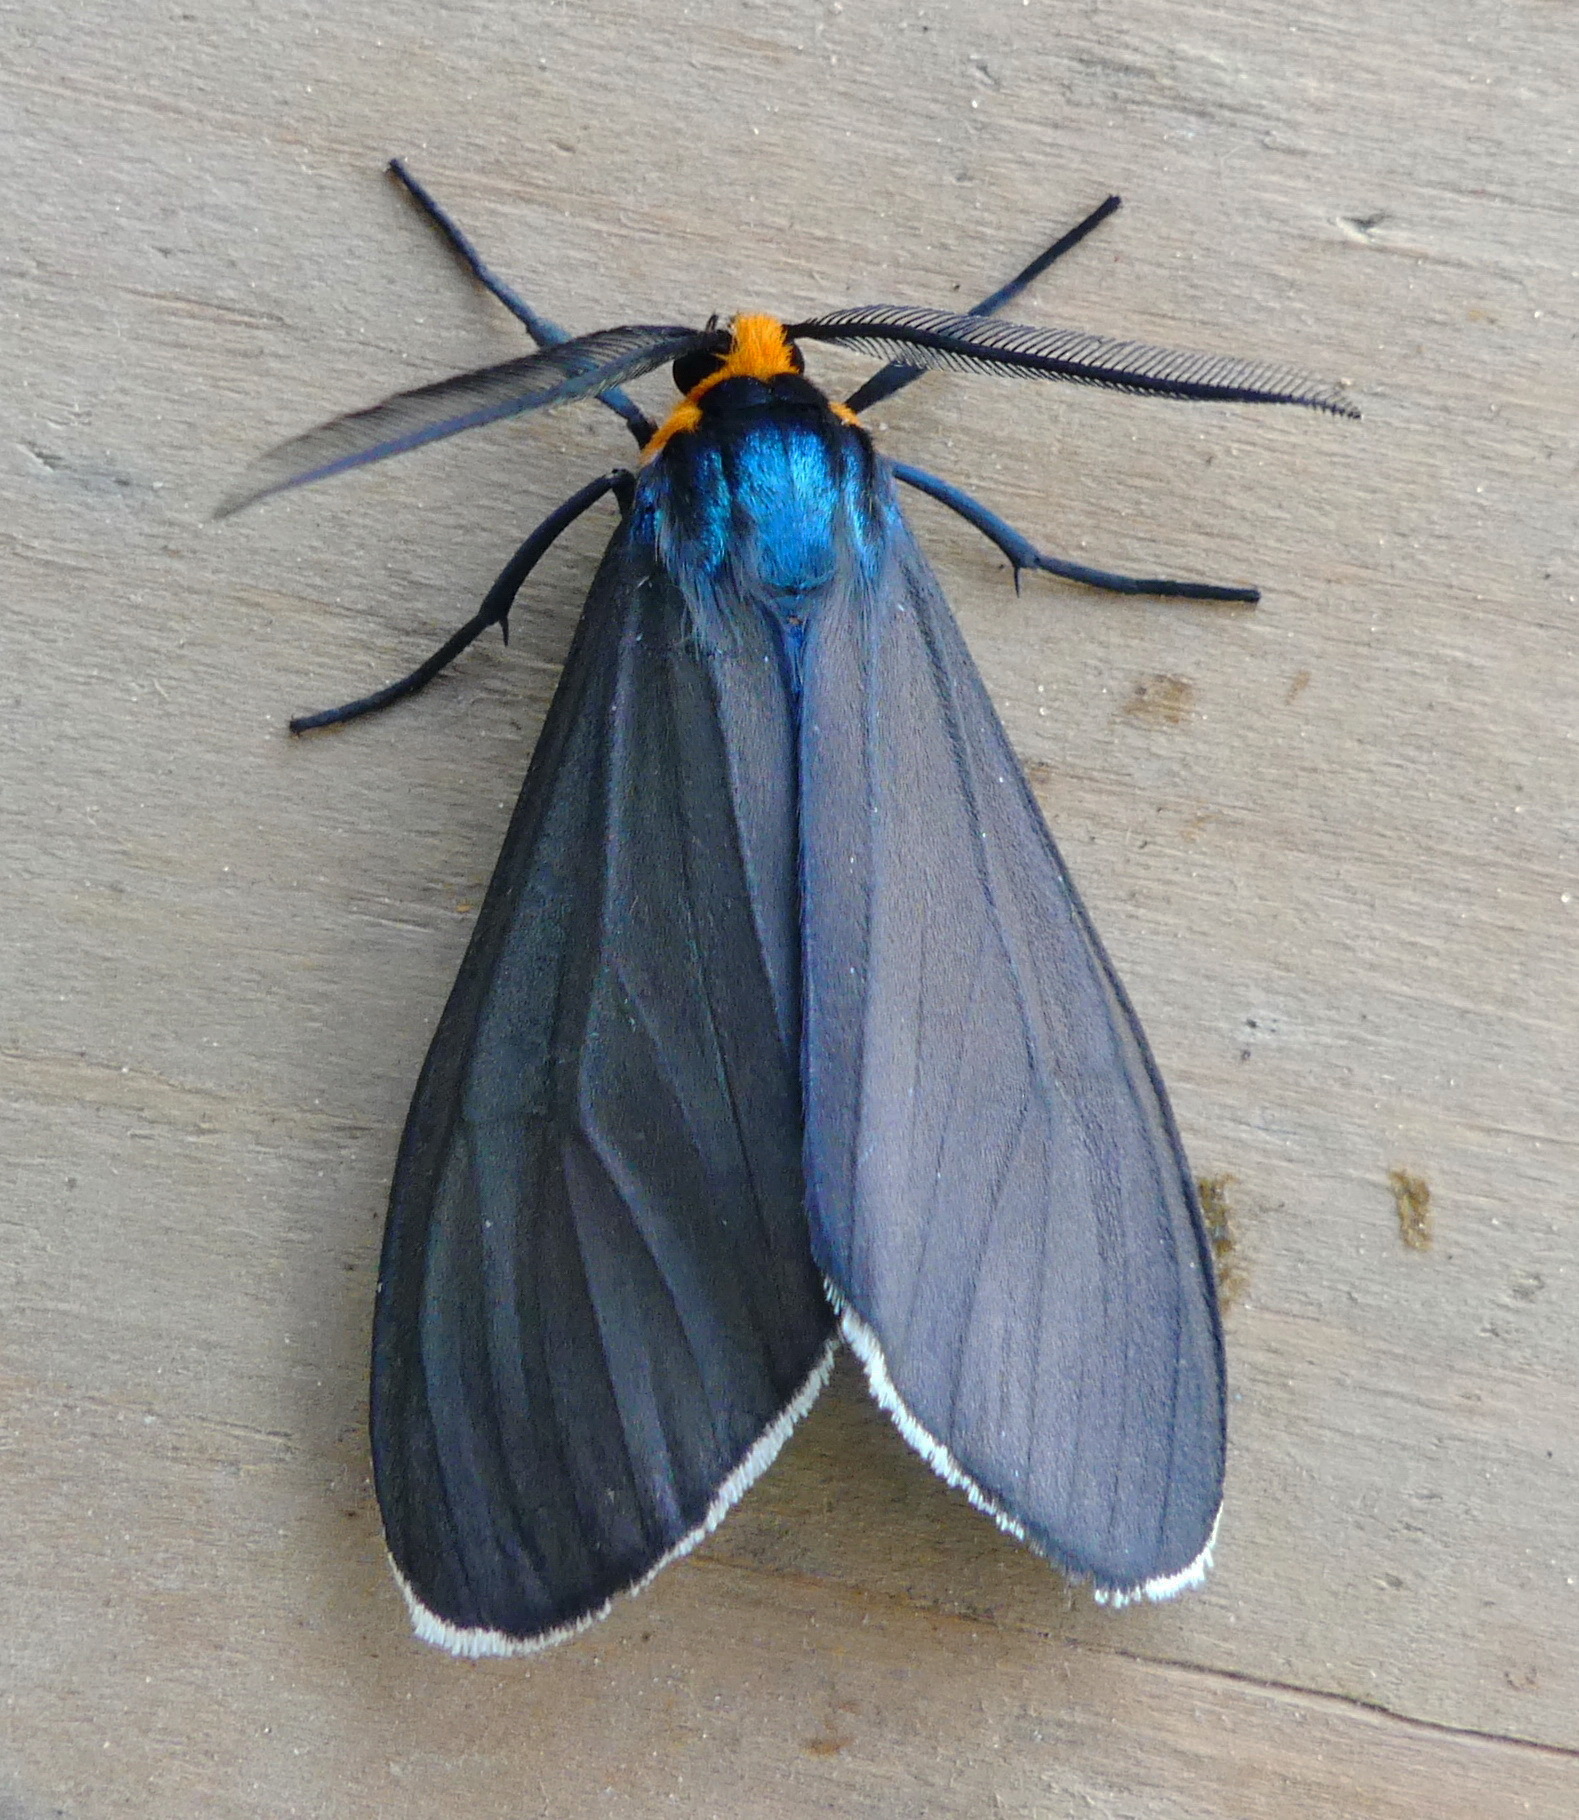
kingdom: Animalia
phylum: Arthropoda
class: Insecta
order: Lepidoptera
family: Erebidae
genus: Ctenucha
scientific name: Ctenucha virginica
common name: Virginia ctenucha moth
